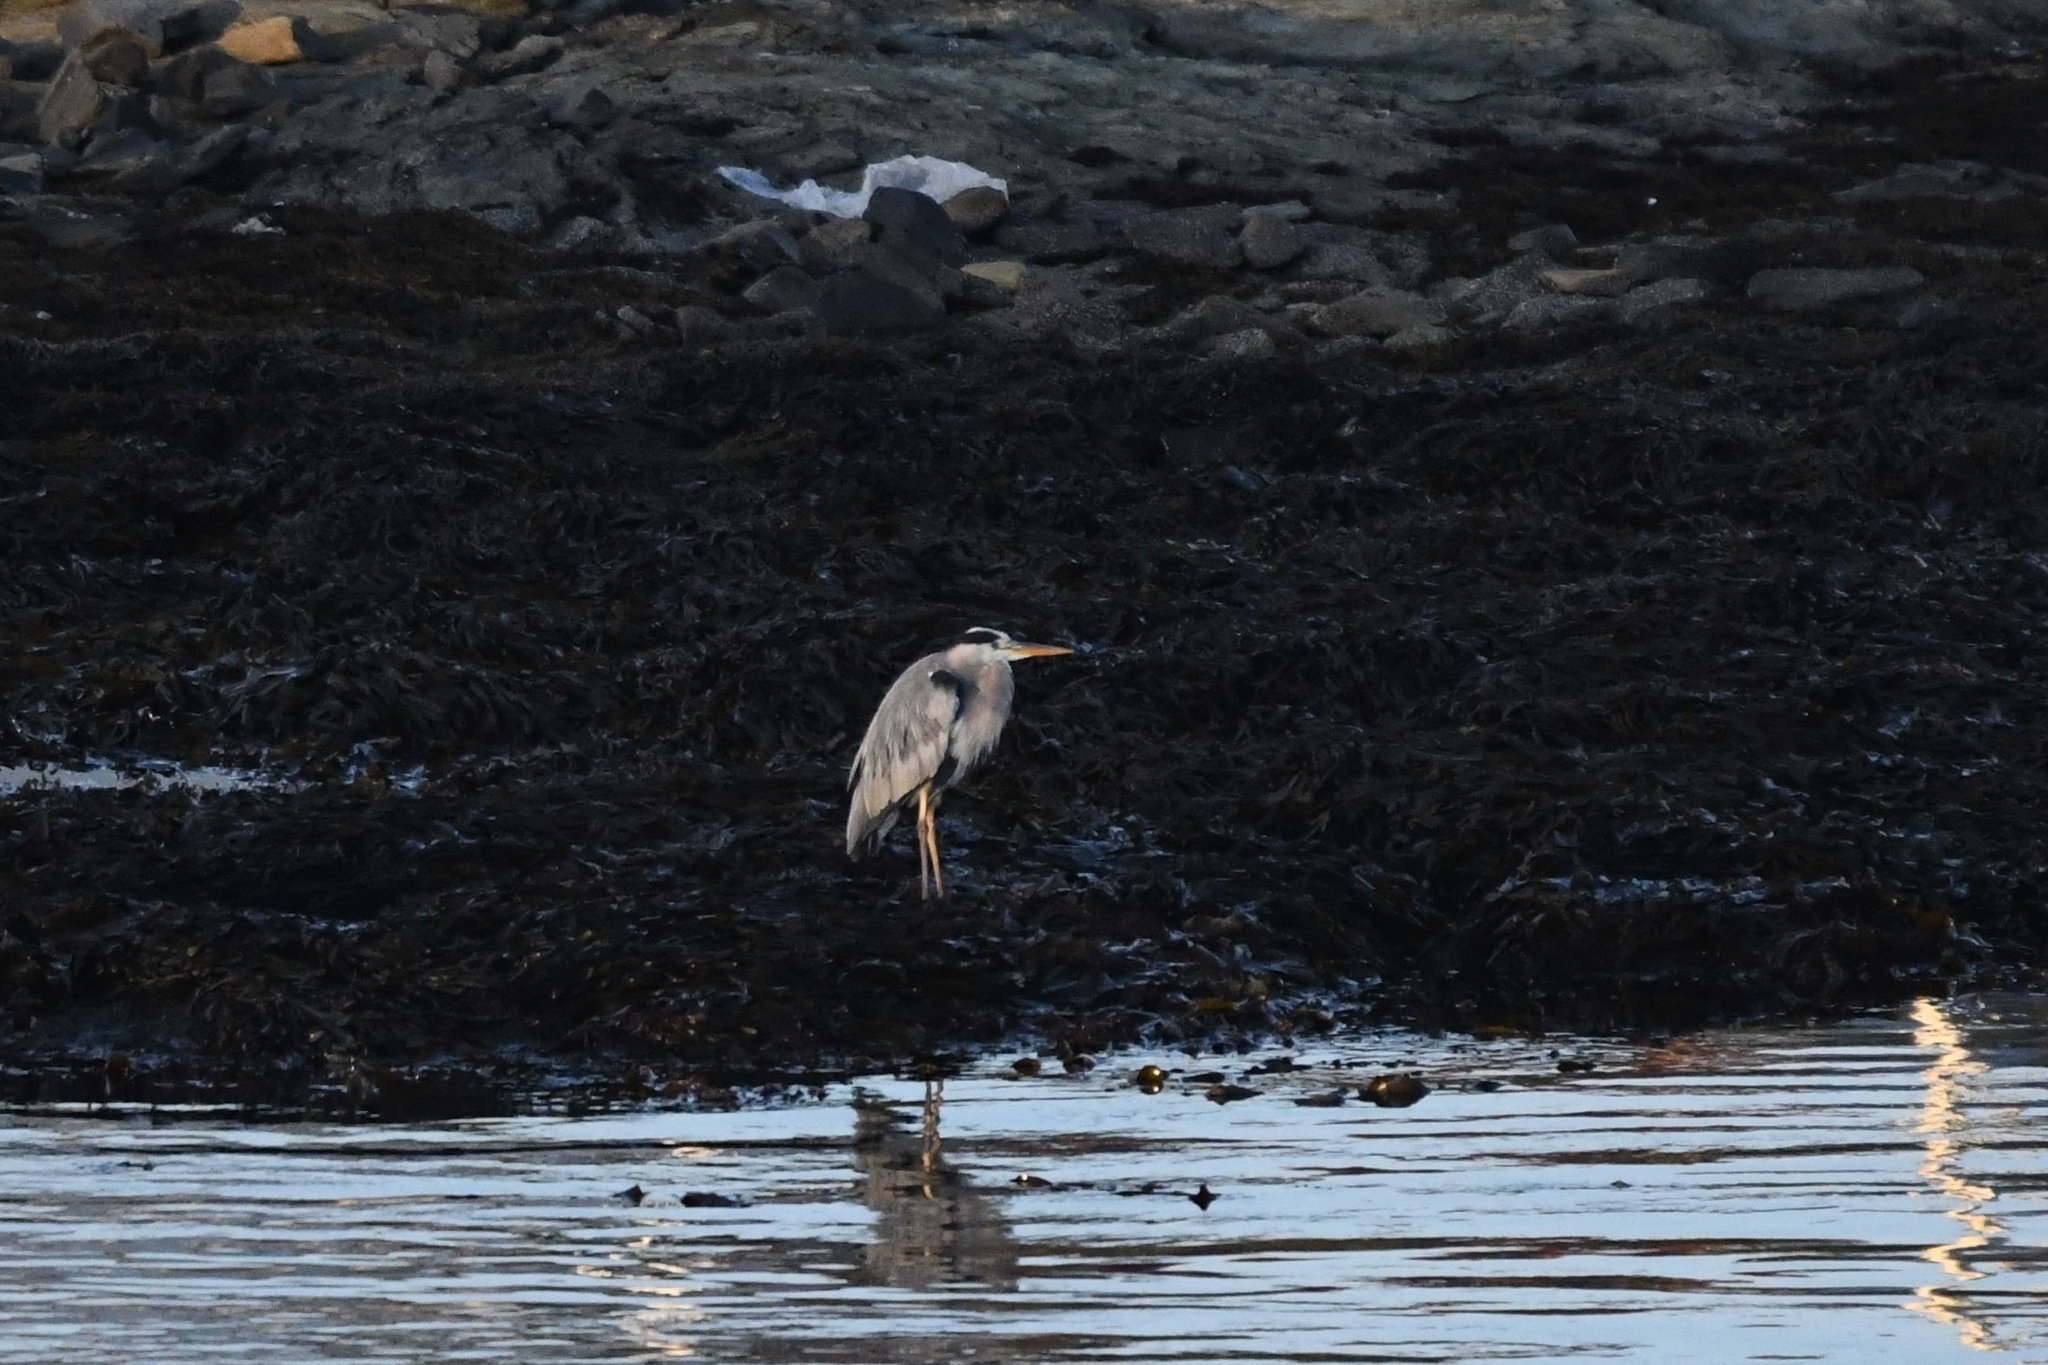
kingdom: Animalia
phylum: Chordata
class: Aves
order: Pelecaniformes
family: Ardeidae
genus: Ardea
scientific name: Ardea cinerea
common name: Grey heron
